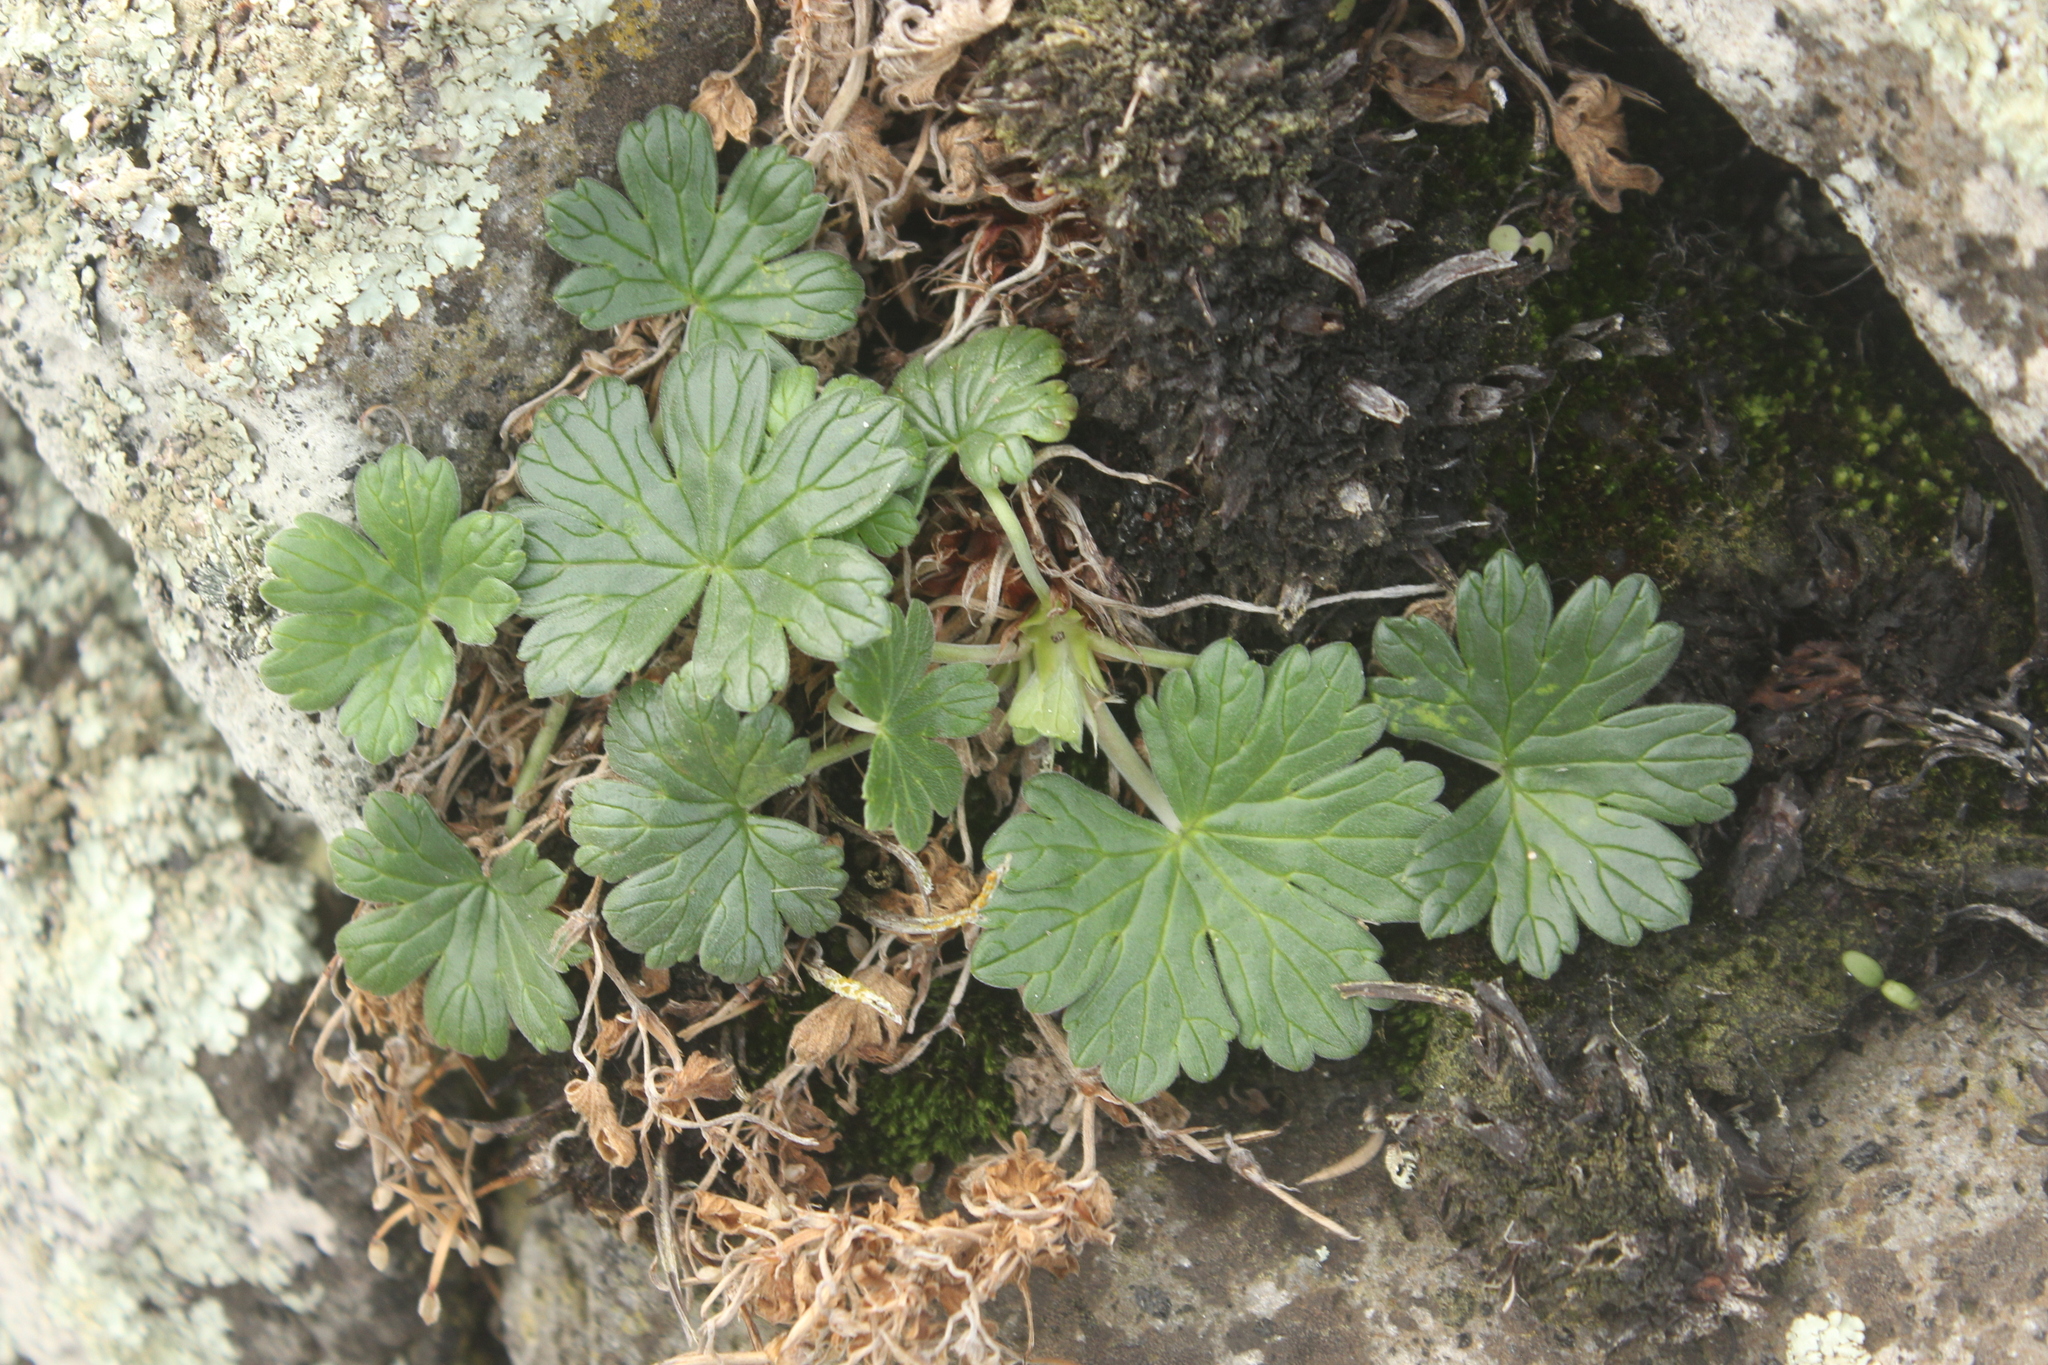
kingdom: Plantae
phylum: Tracheophyta
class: Magnoliopsida
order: Geraniales
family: Geraniaceae
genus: Geranium
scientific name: Geranium traversii
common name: Cranesbill
